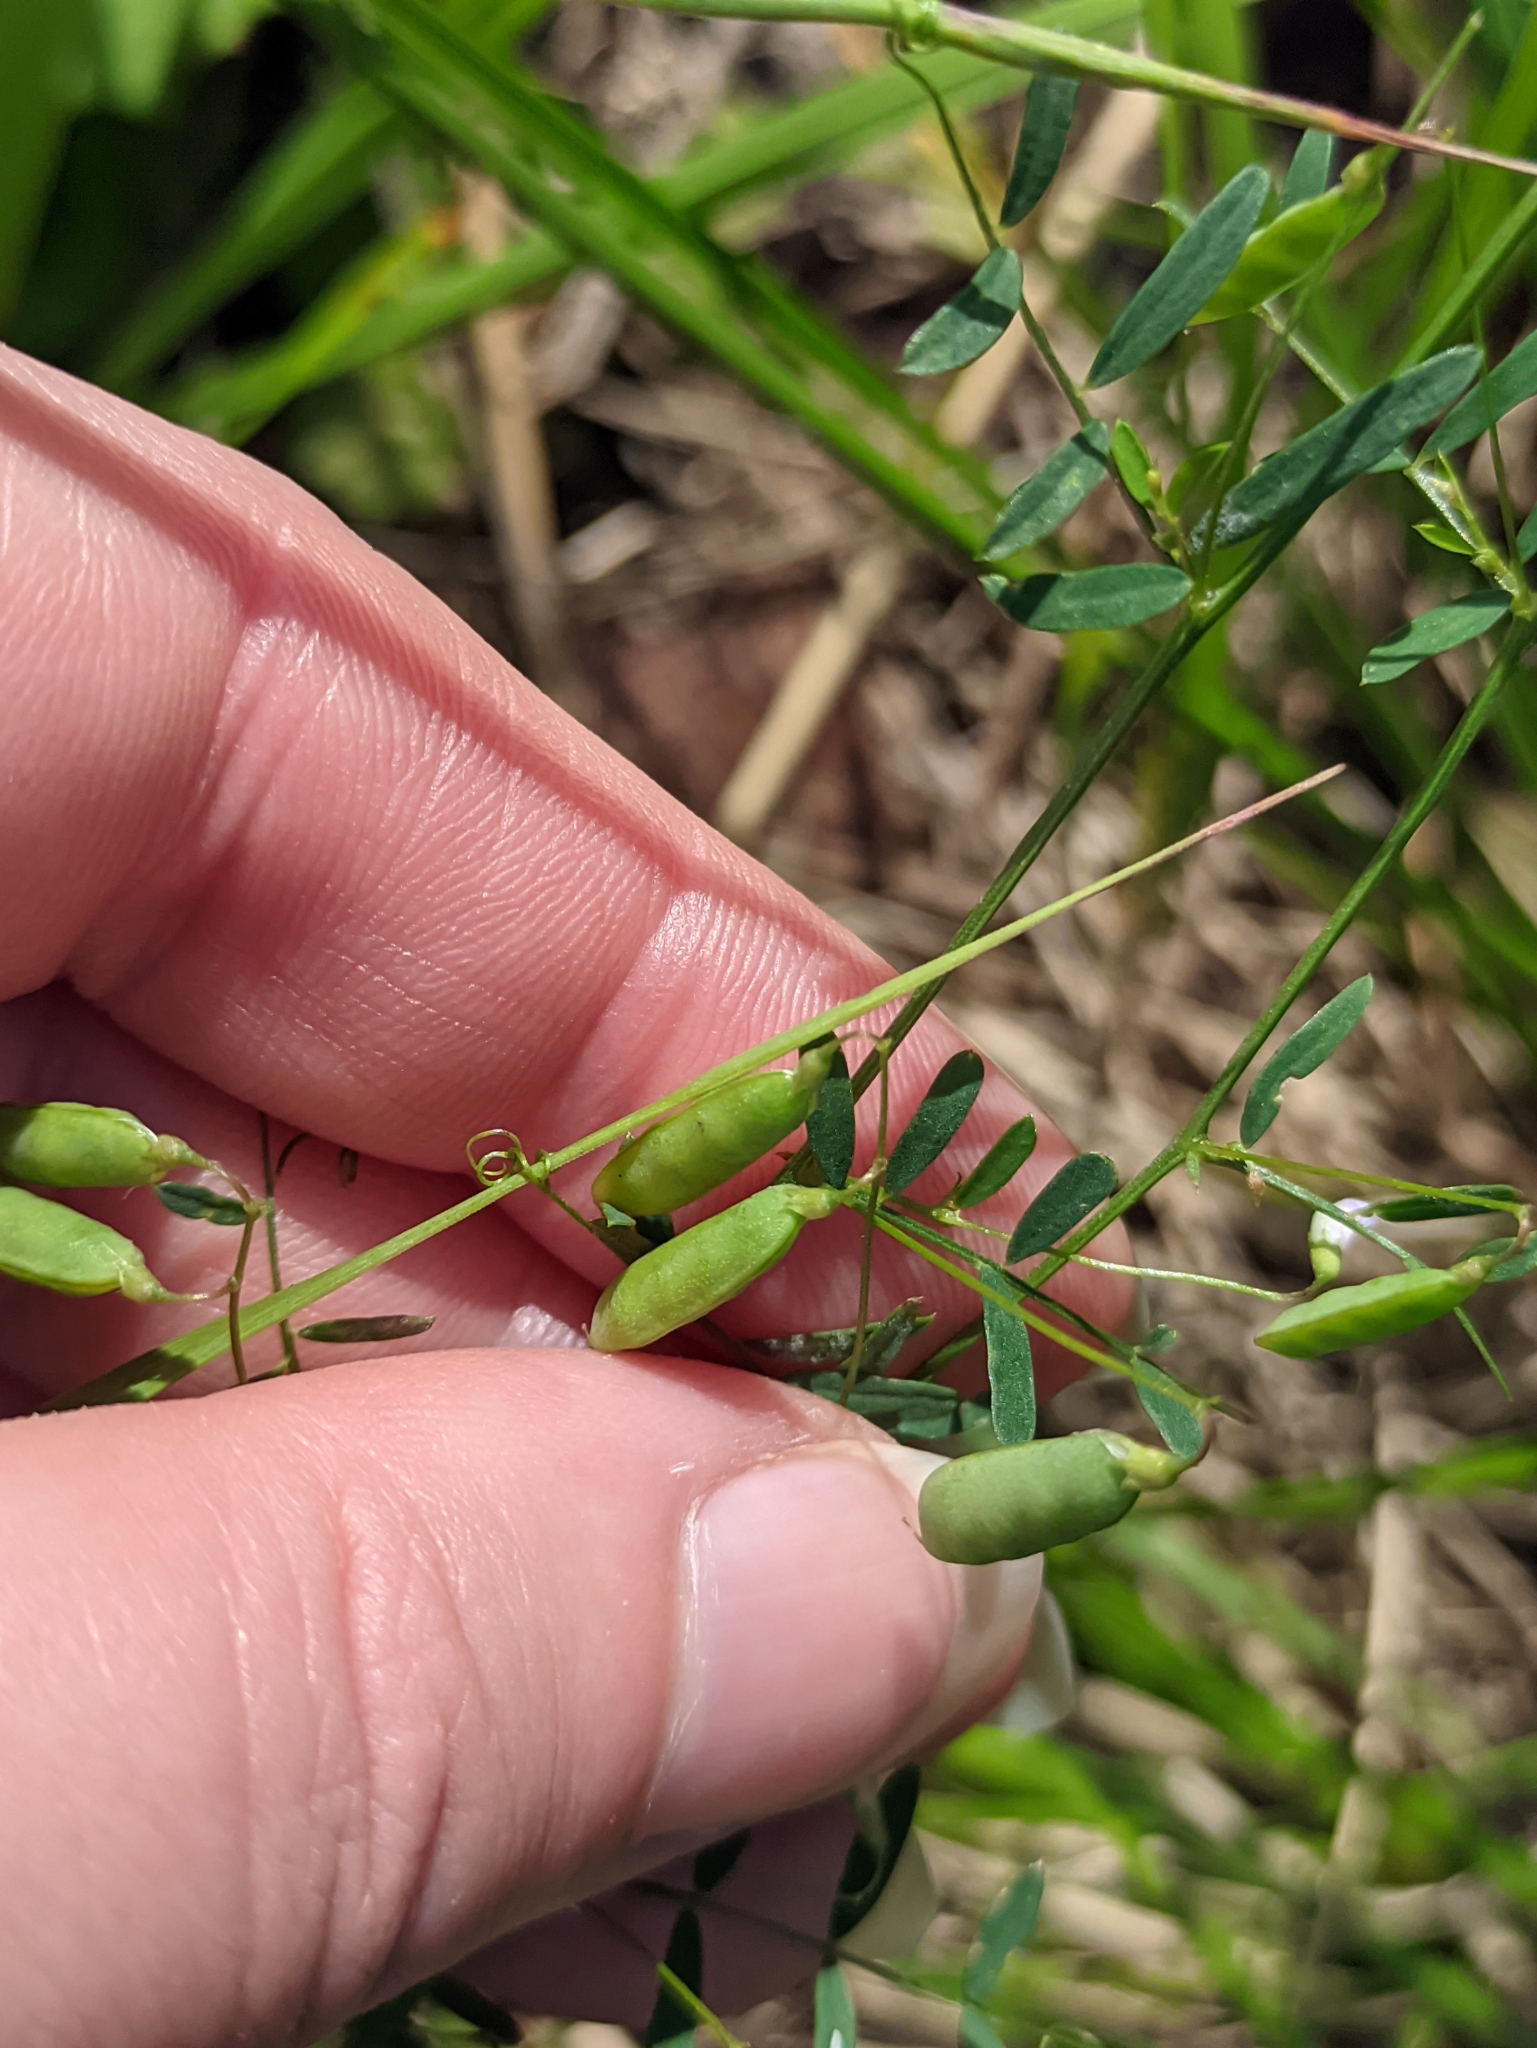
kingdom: Plantae
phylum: Tracheophyta
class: Magnoliopsida
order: Fabales
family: Fabaceae
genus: Vicia
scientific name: Vicia tetrasperma
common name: Smooth tare
